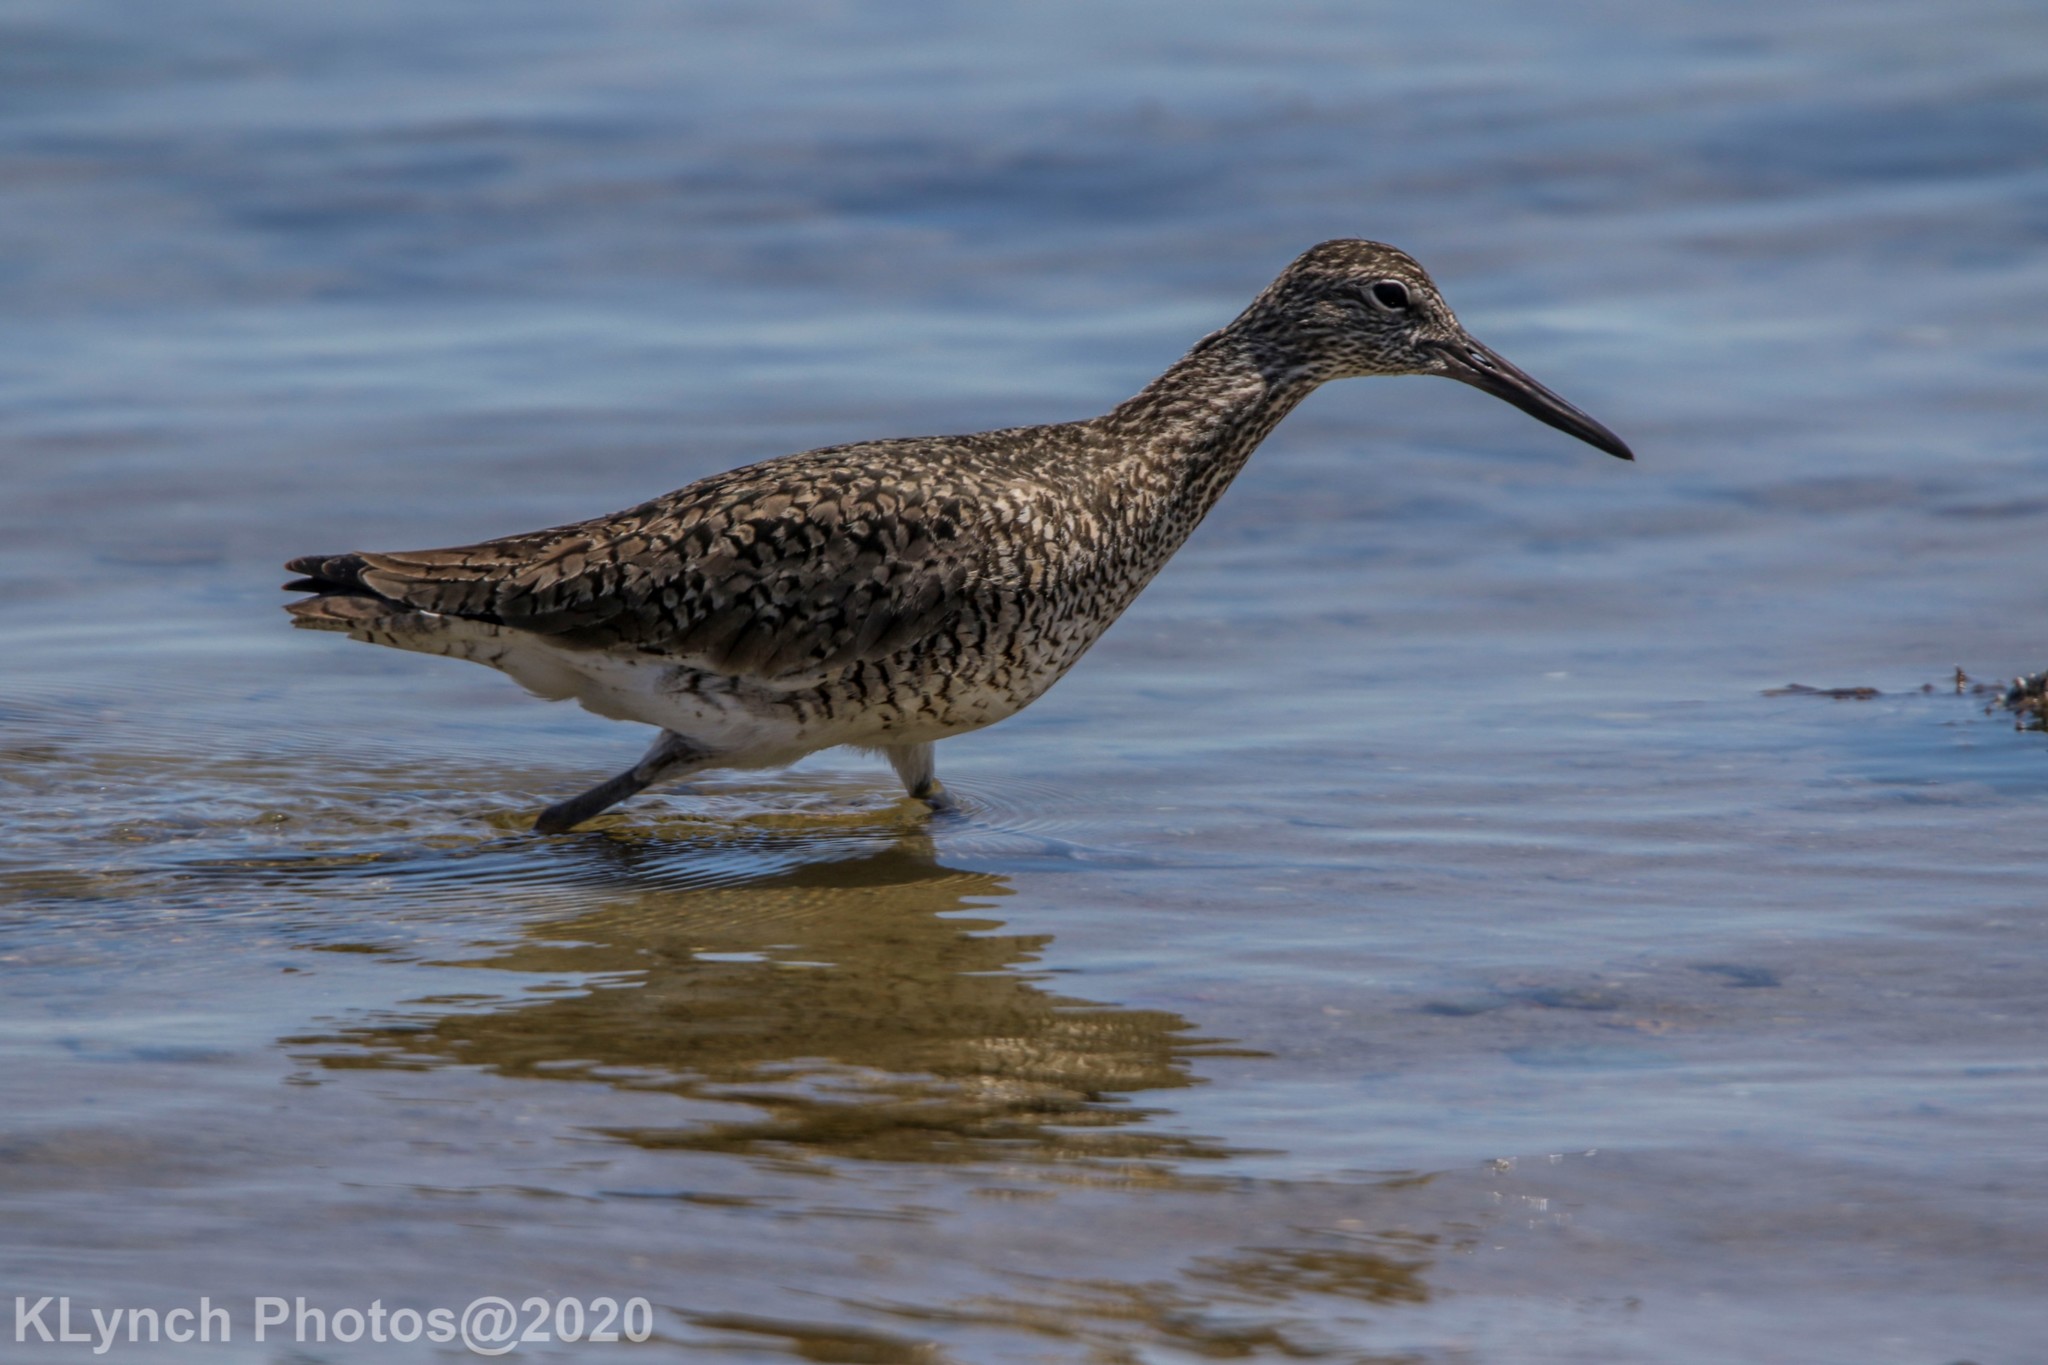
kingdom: Animalia
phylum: Chordata
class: Aves
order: Charadriiformes
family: Scolopacidae
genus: Tringa
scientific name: Tringa semipalmata
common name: Willet
